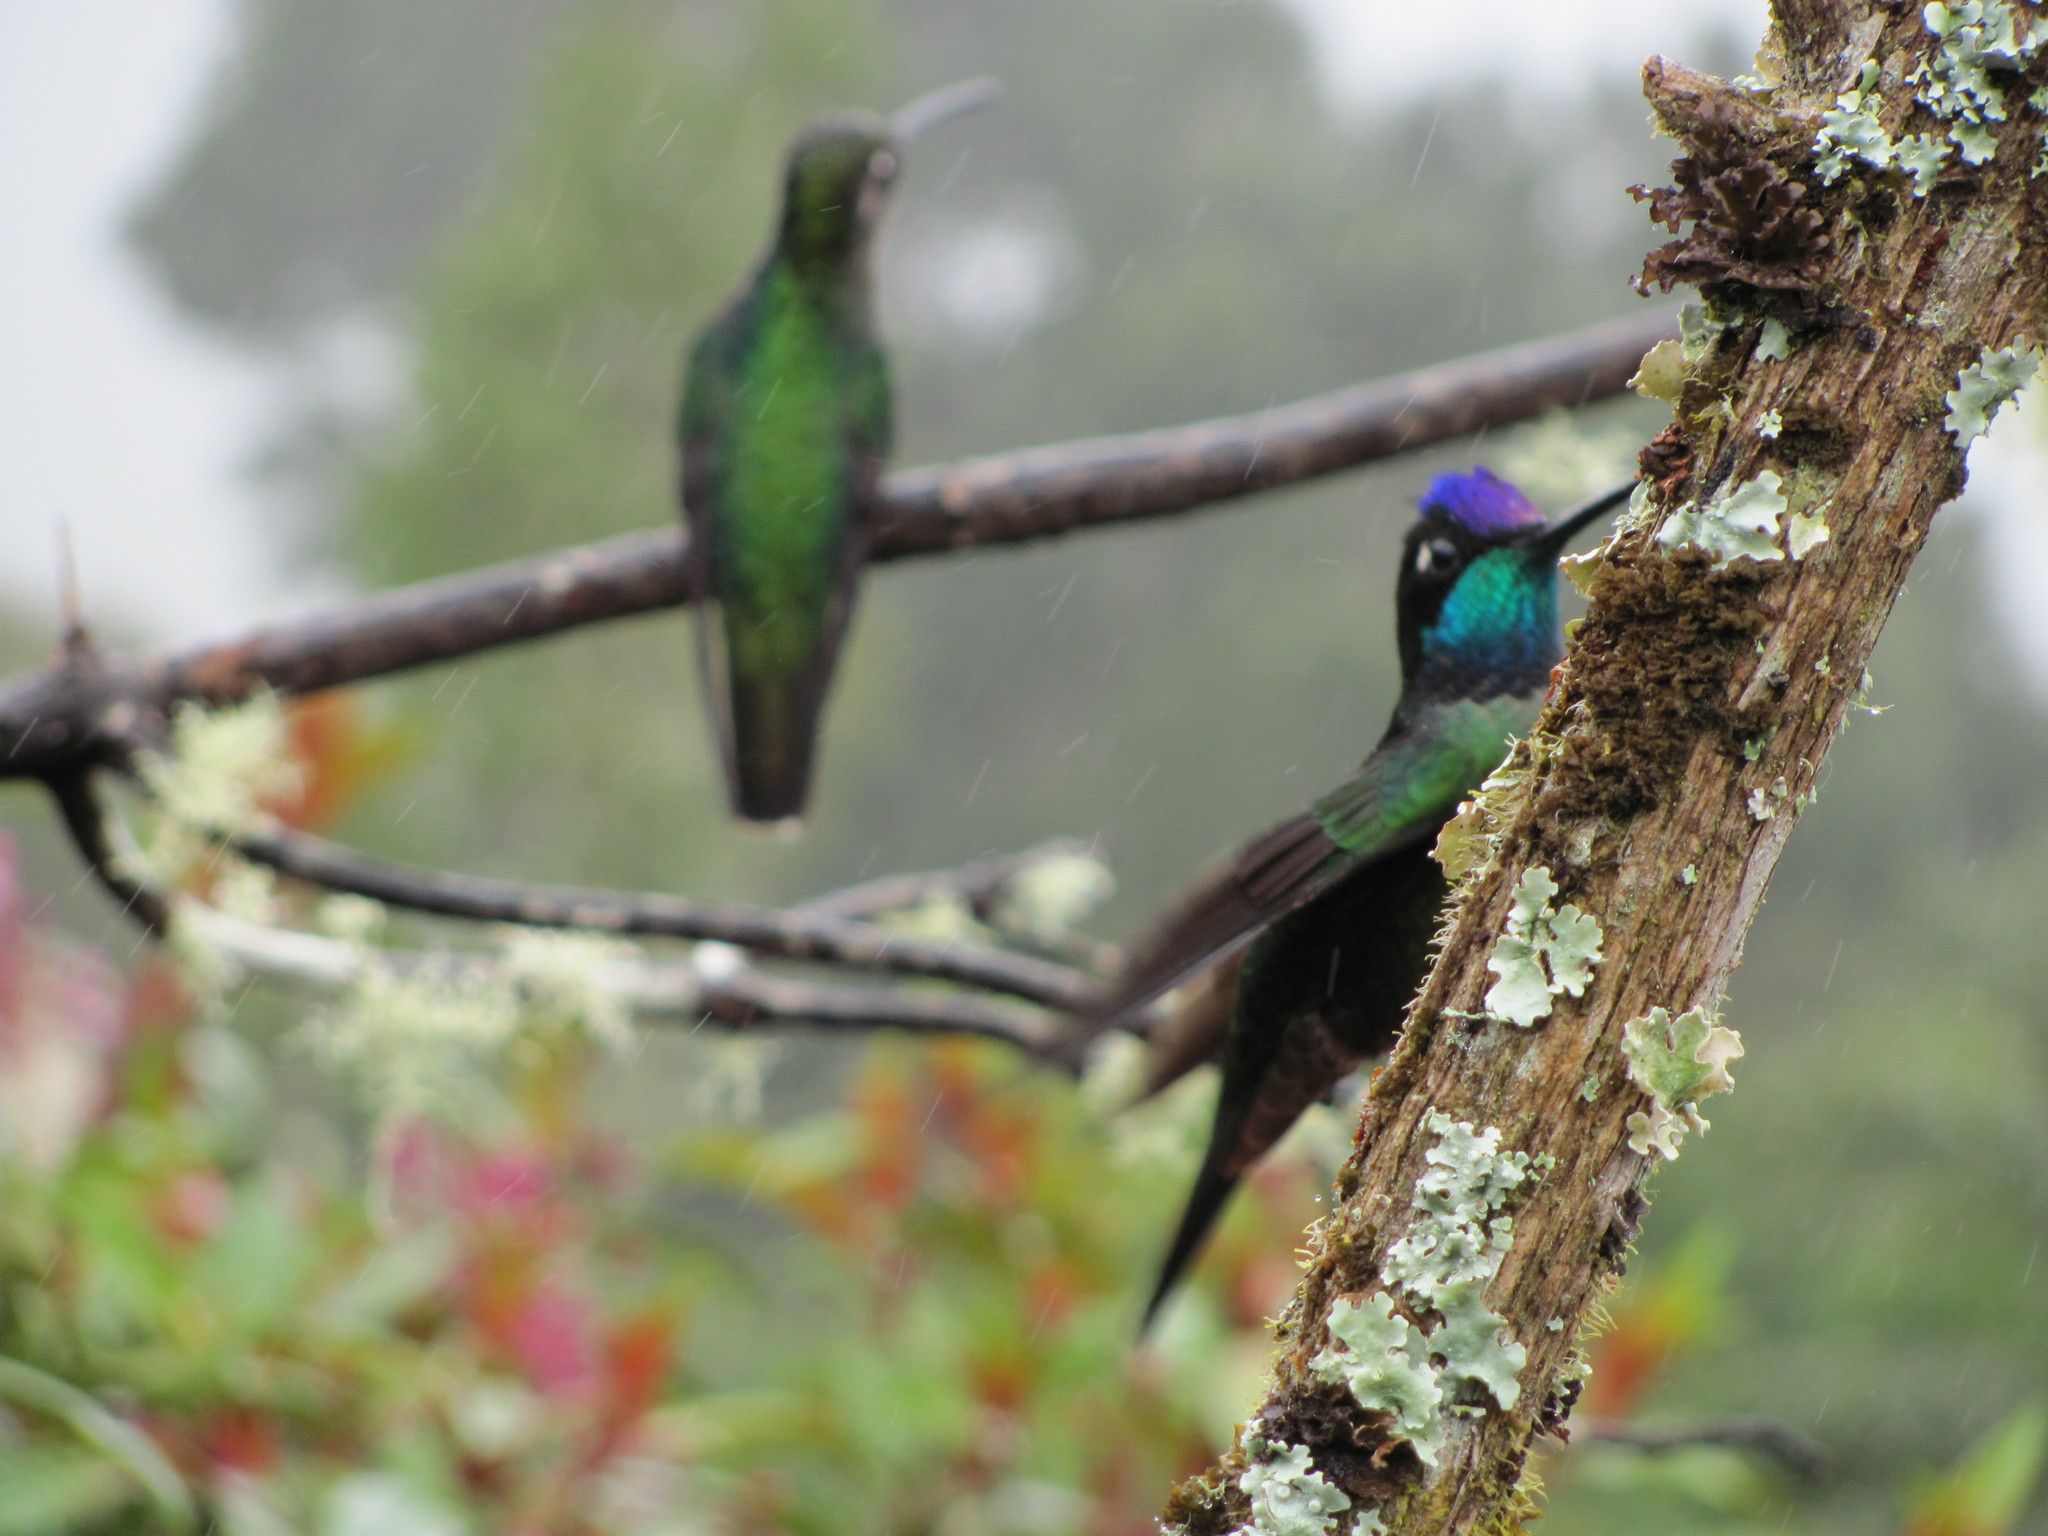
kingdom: Animalia
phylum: Chordata
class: Aves
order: Apodiformes
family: Trochilidae
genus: Eugenes
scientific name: Eugenes spectabilis
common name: Talamanca hummingbird
